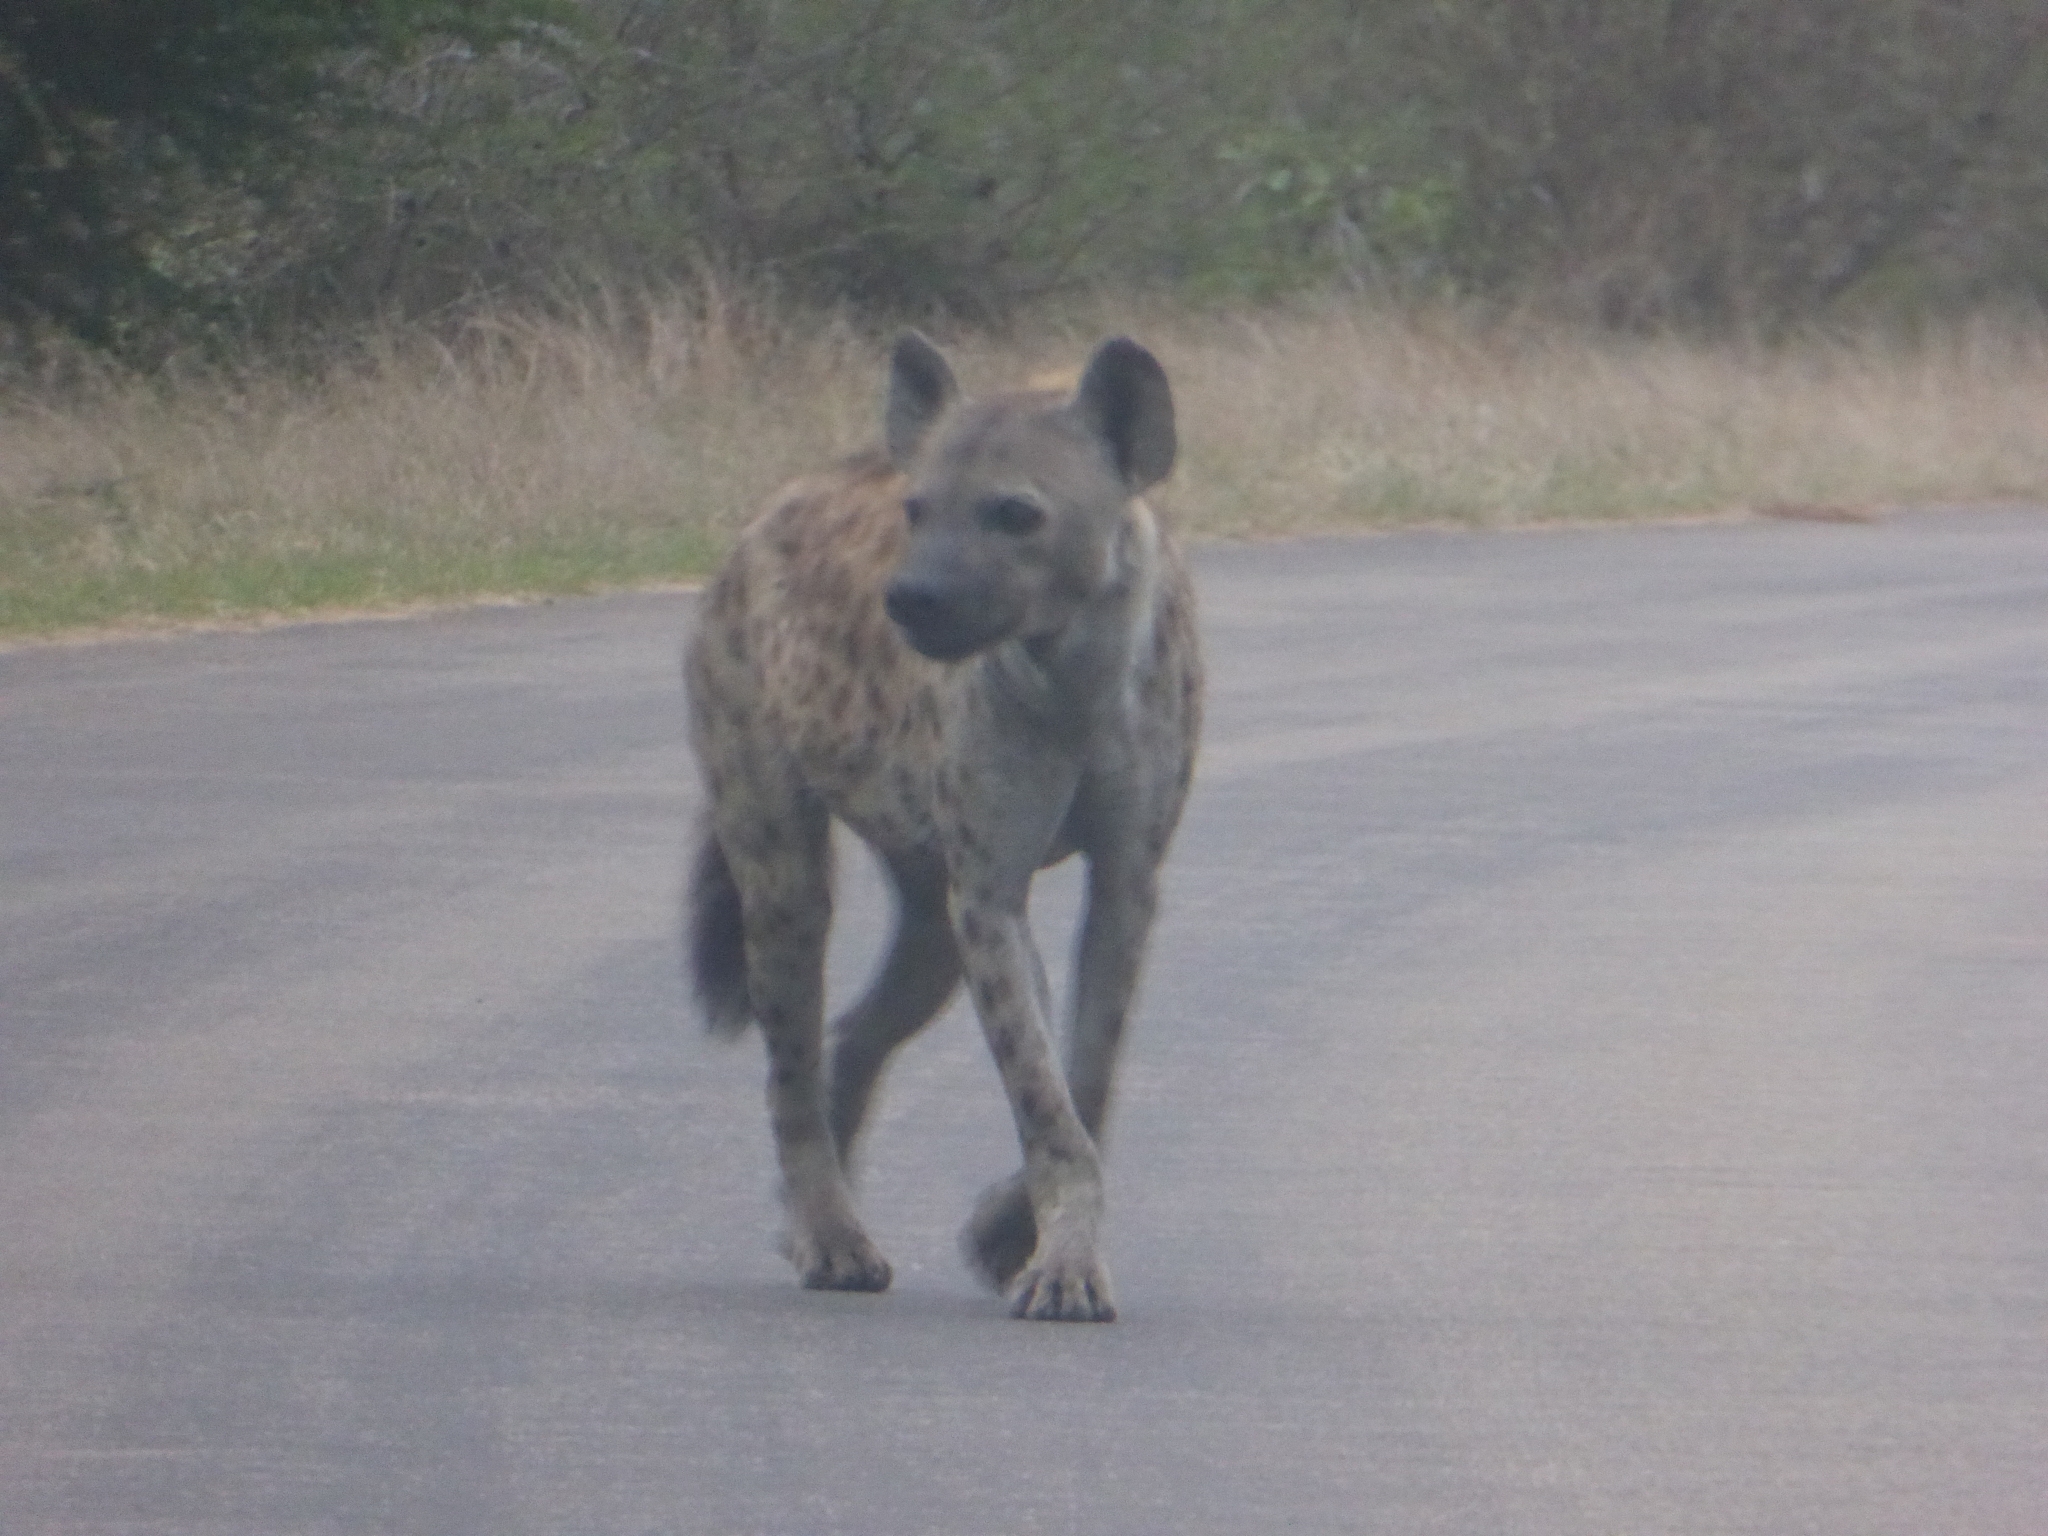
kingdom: Animalia
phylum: Chordata
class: Mammalia
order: Carnivora
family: Hyaenidae
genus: Crocuta
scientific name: Crocuta crocuta
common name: Spotted hyaena
